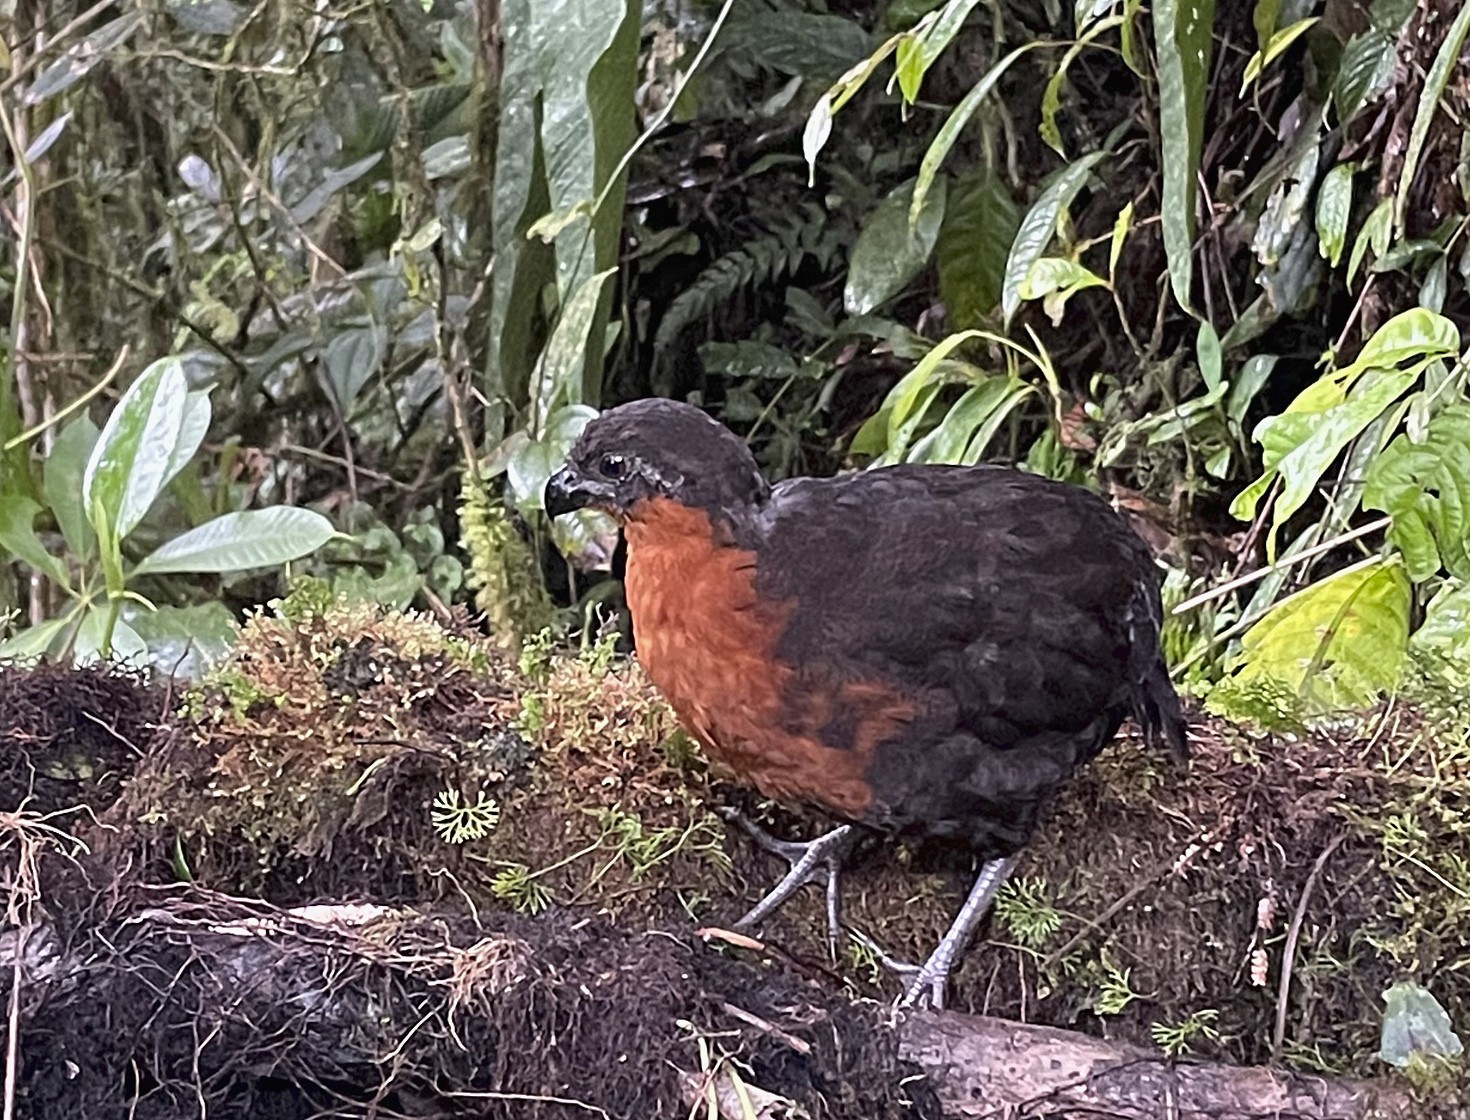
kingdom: Animalia
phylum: Chordata
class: Aves
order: Galliformes
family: Odontophoridae
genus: Odontophorus
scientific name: Odontophorus melanonotus
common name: Dark-backed wood-quail
